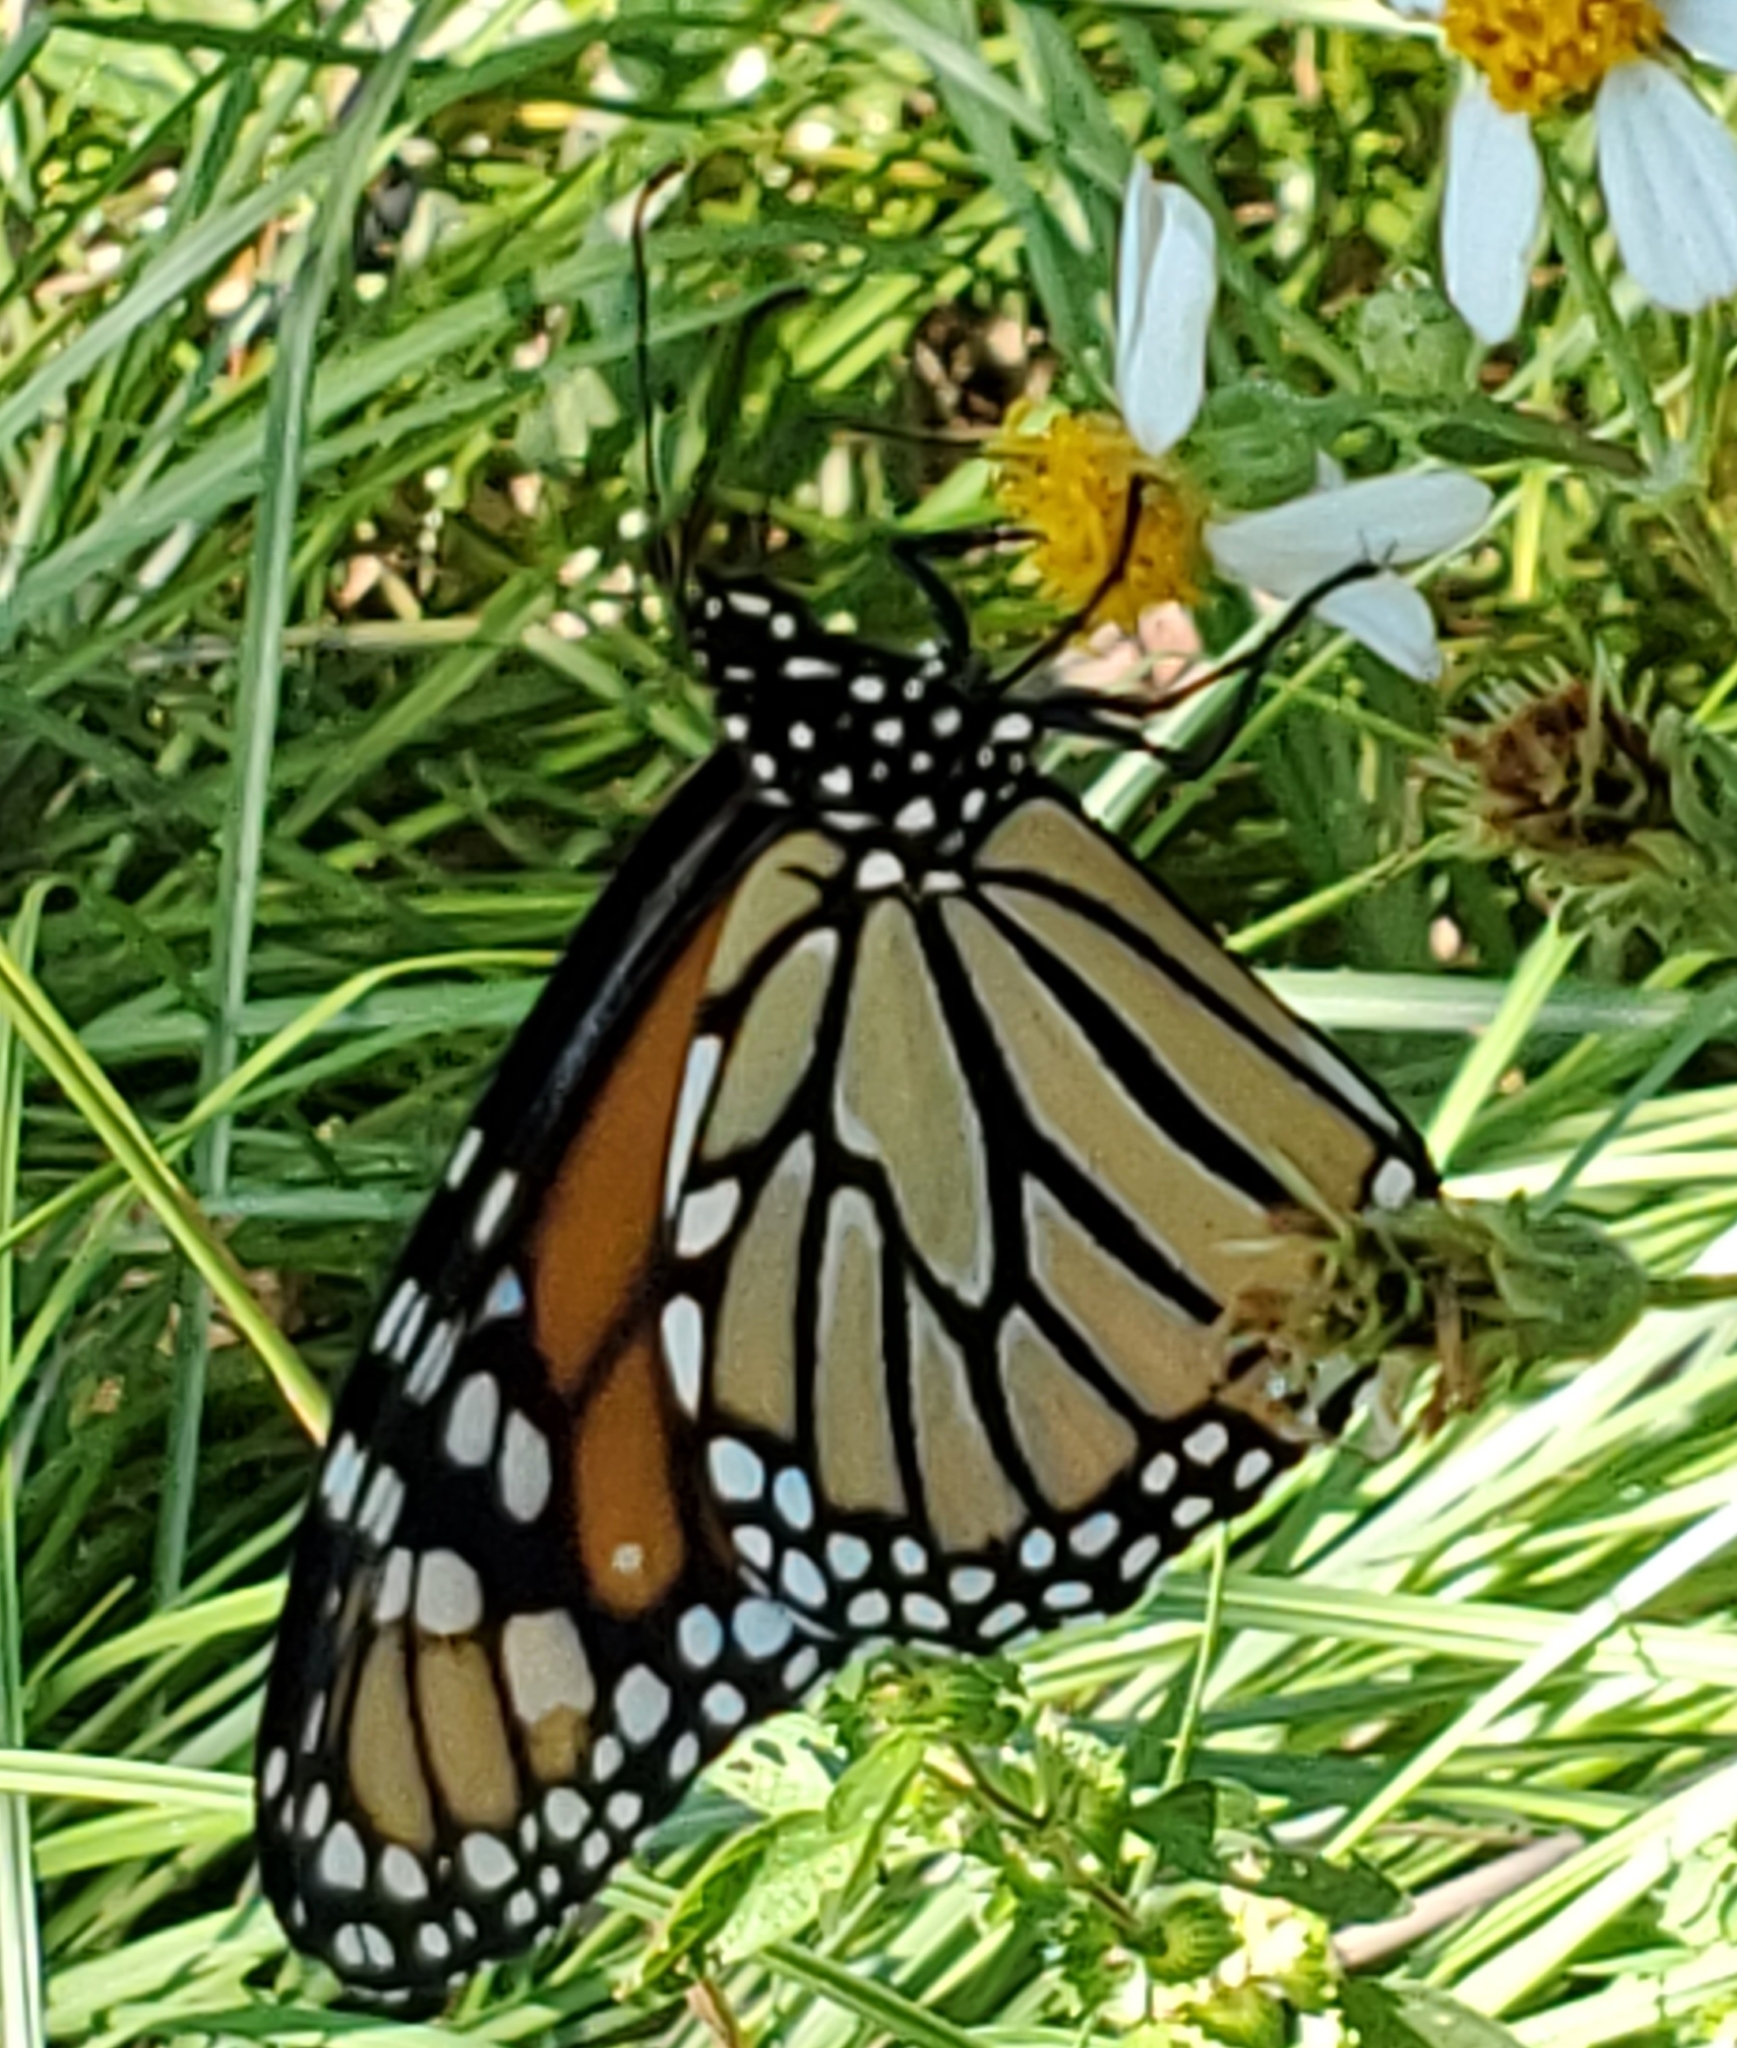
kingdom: Animalia
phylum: Arthropoda
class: Insecta
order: Lepidoptera
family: Nymphalidae
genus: Danaus
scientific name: Danaus plexippus
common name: Monarch
